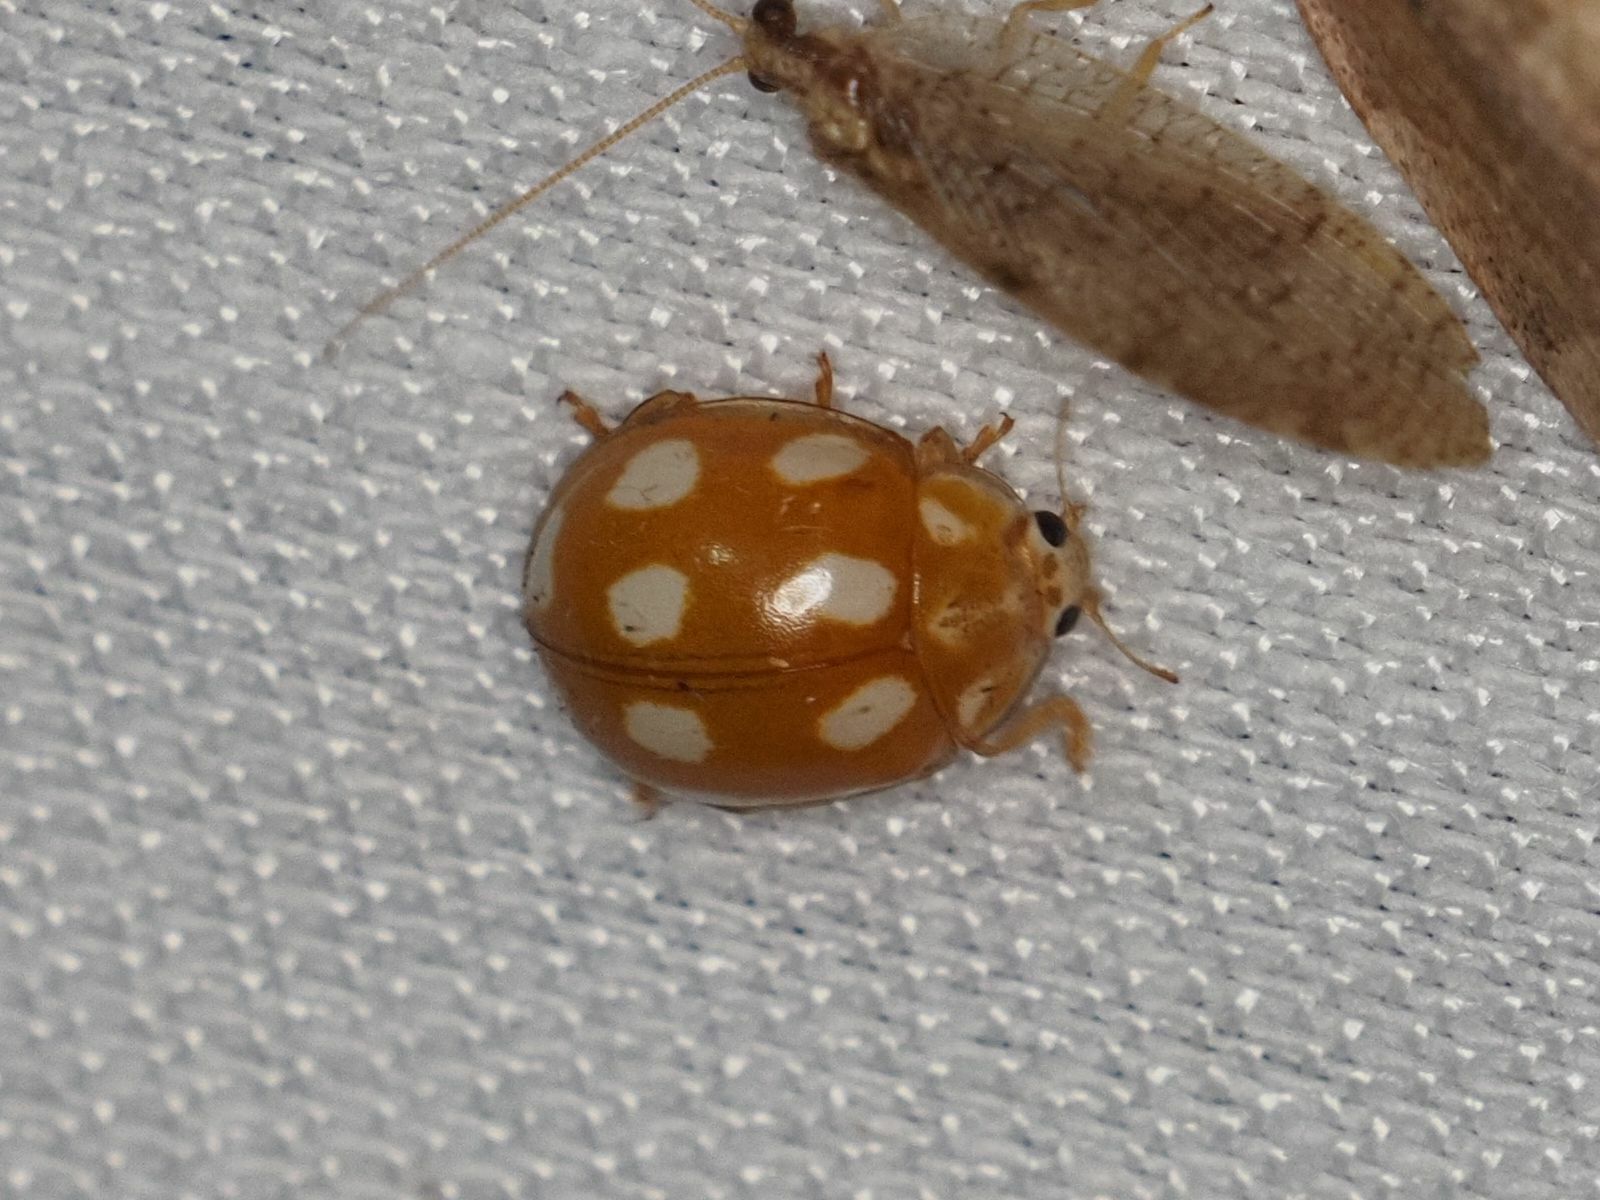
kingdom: Animalia
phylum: Arthropoda
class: Insecta
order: Coleoptera
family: Coccinellidae
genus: Calvia
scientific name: Calvia decemguttata
